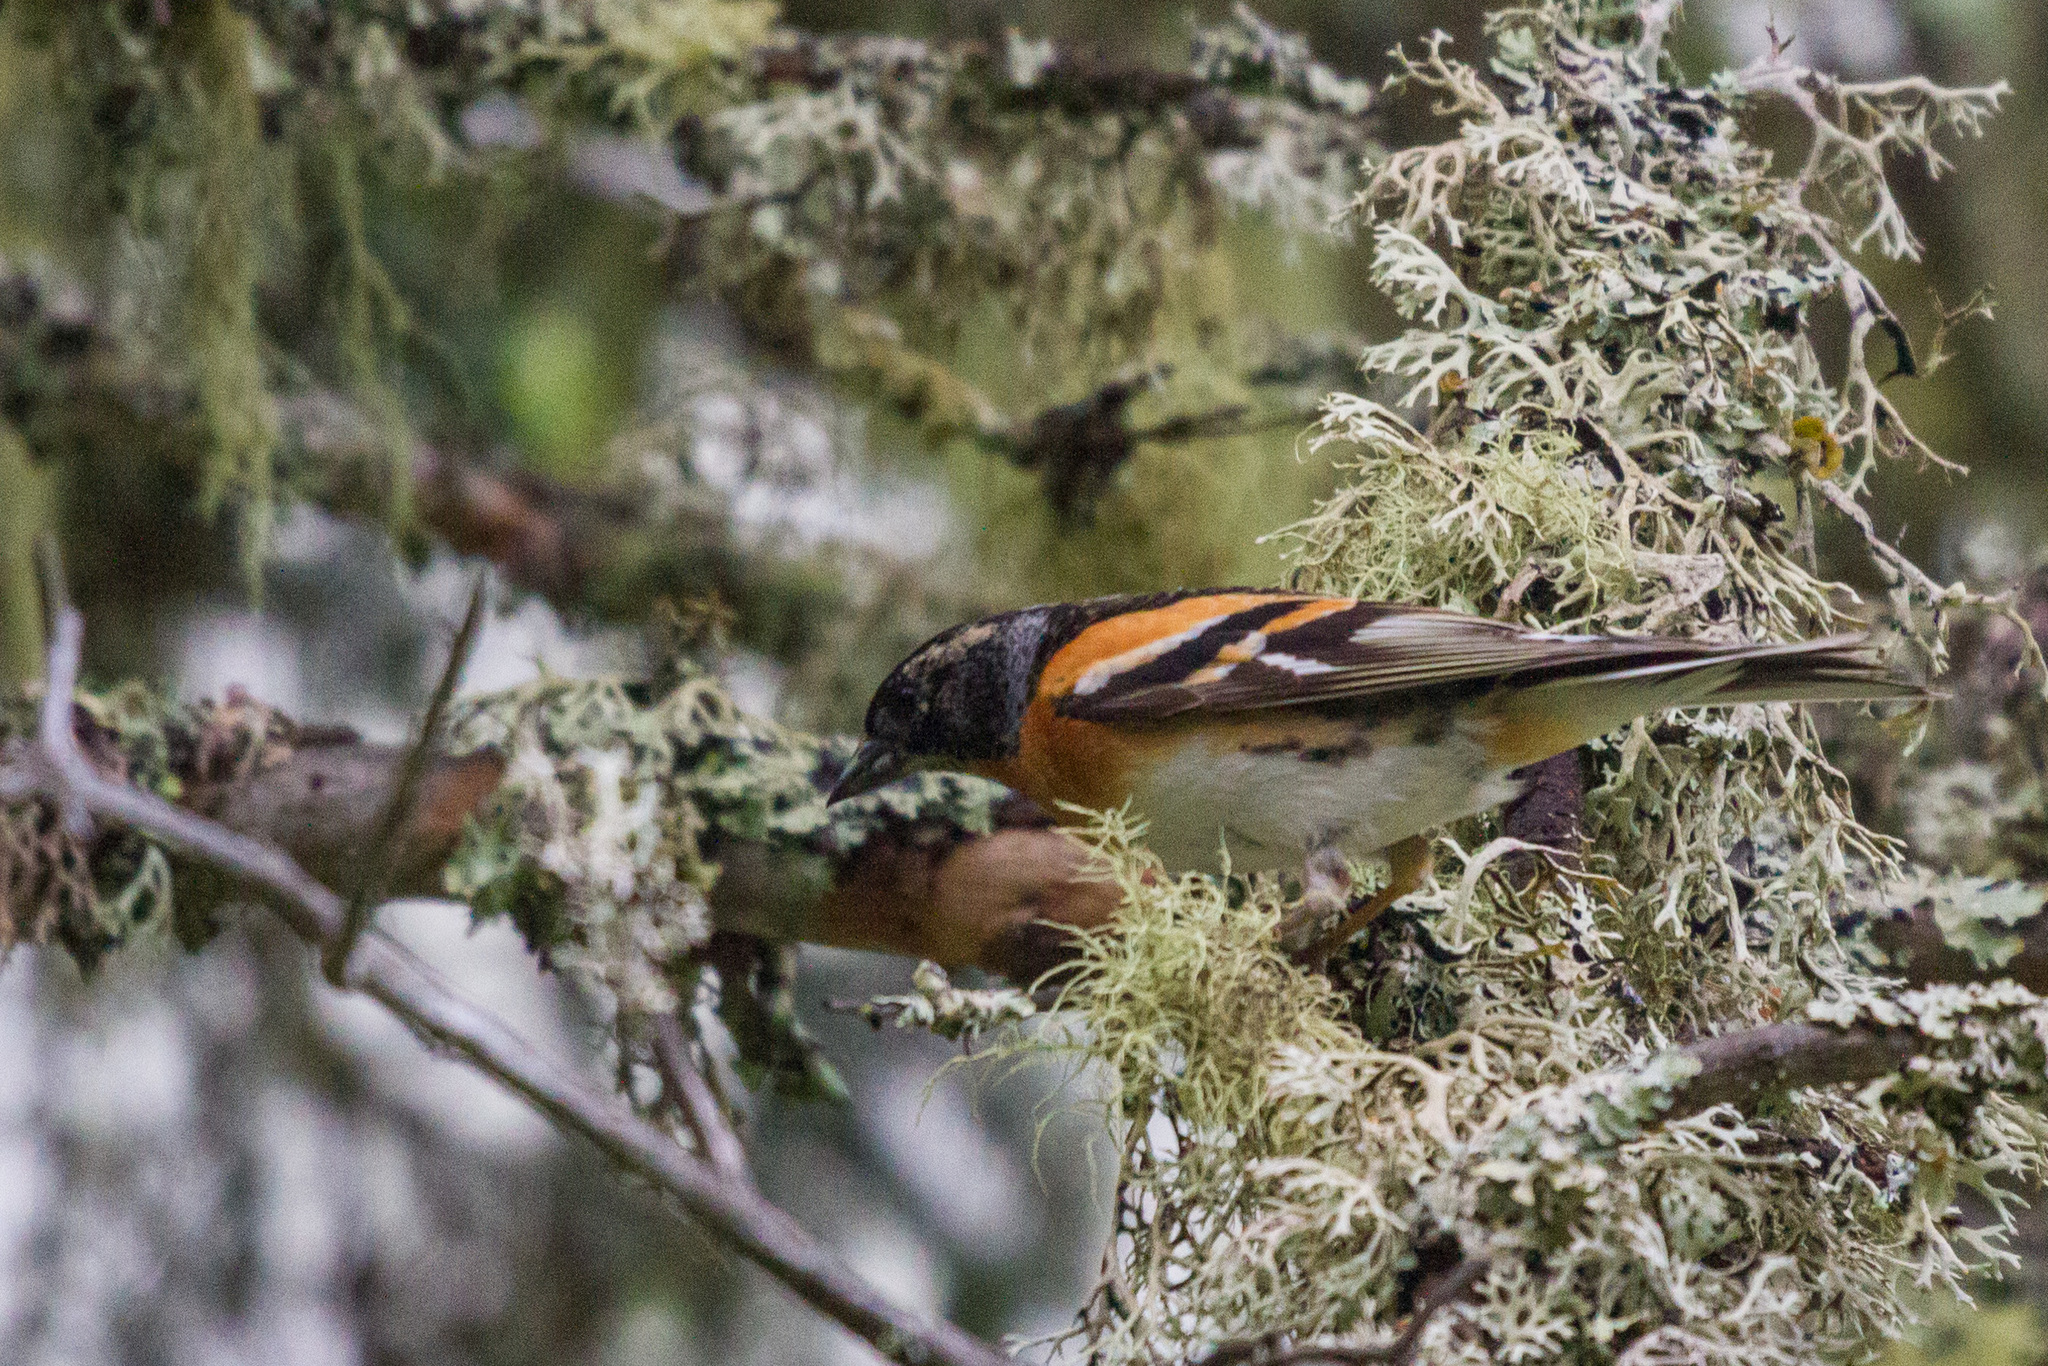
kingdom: Animalia
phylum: Chordata
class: Aves
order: Passeriformes
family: Fringillidae
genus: Fringilla
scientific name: Fringilla montifringilla
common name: Brambling
